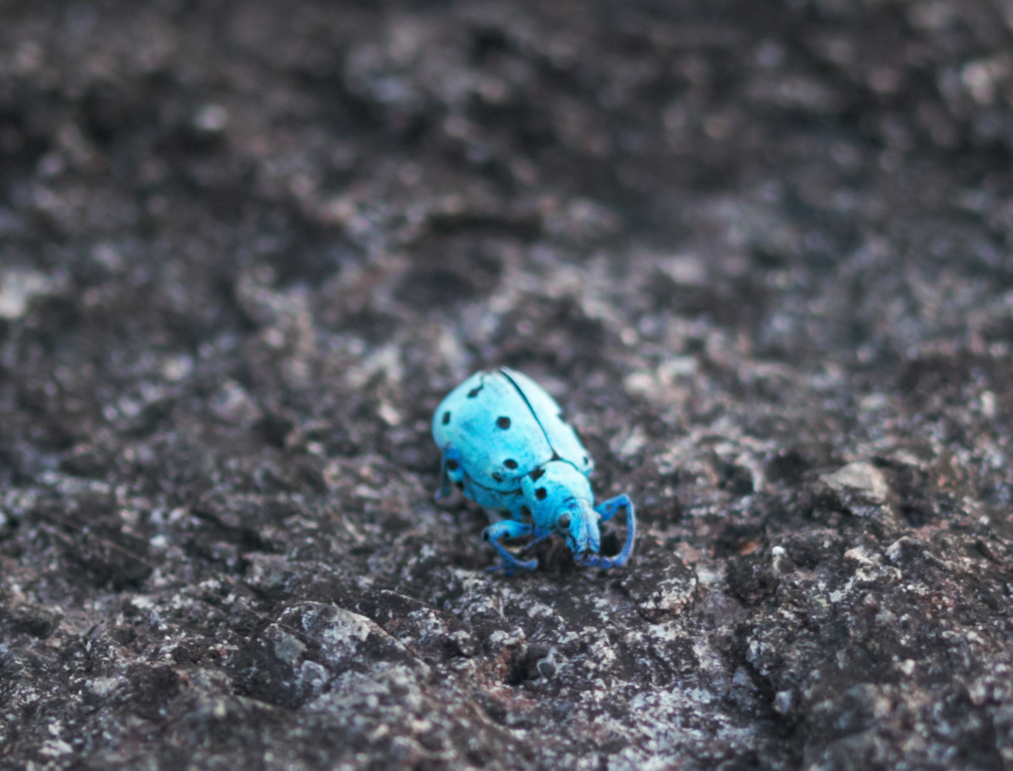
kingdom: Animalia
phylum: Arthropoda
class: Insecta
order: Coleoptera
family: Curculionidae
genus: Ericydeus
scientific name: Ericydeus schoenherri
